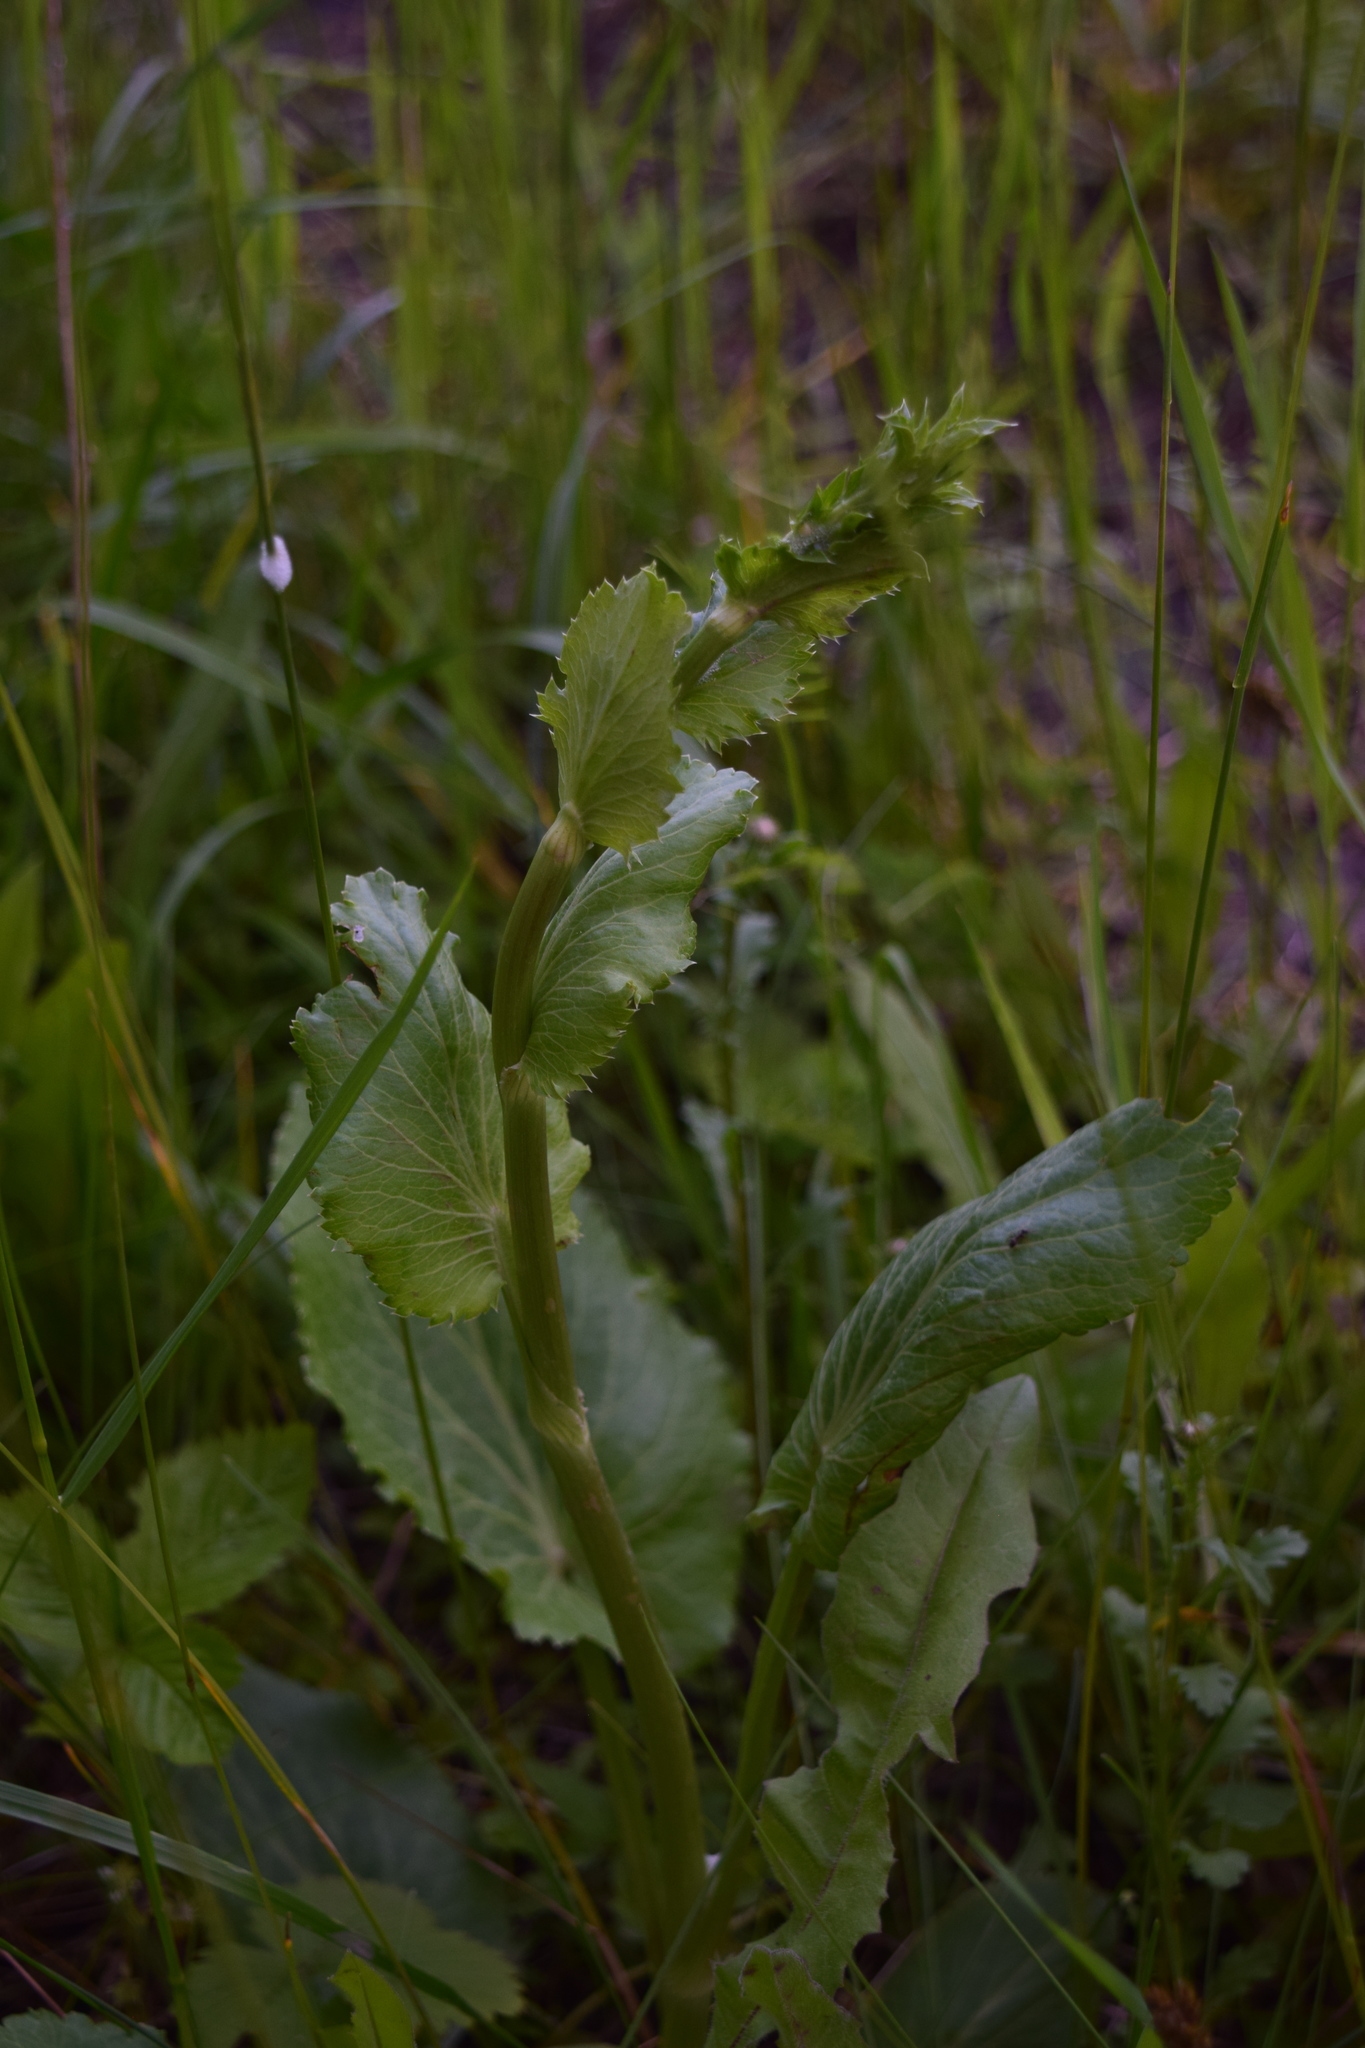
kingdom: Plantae
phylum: Tracheophyta
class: Magnoliopsida
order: Apiales
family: Apiaceae
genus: Eryngium
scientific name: Eryngium planum
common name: Blue eryngo
